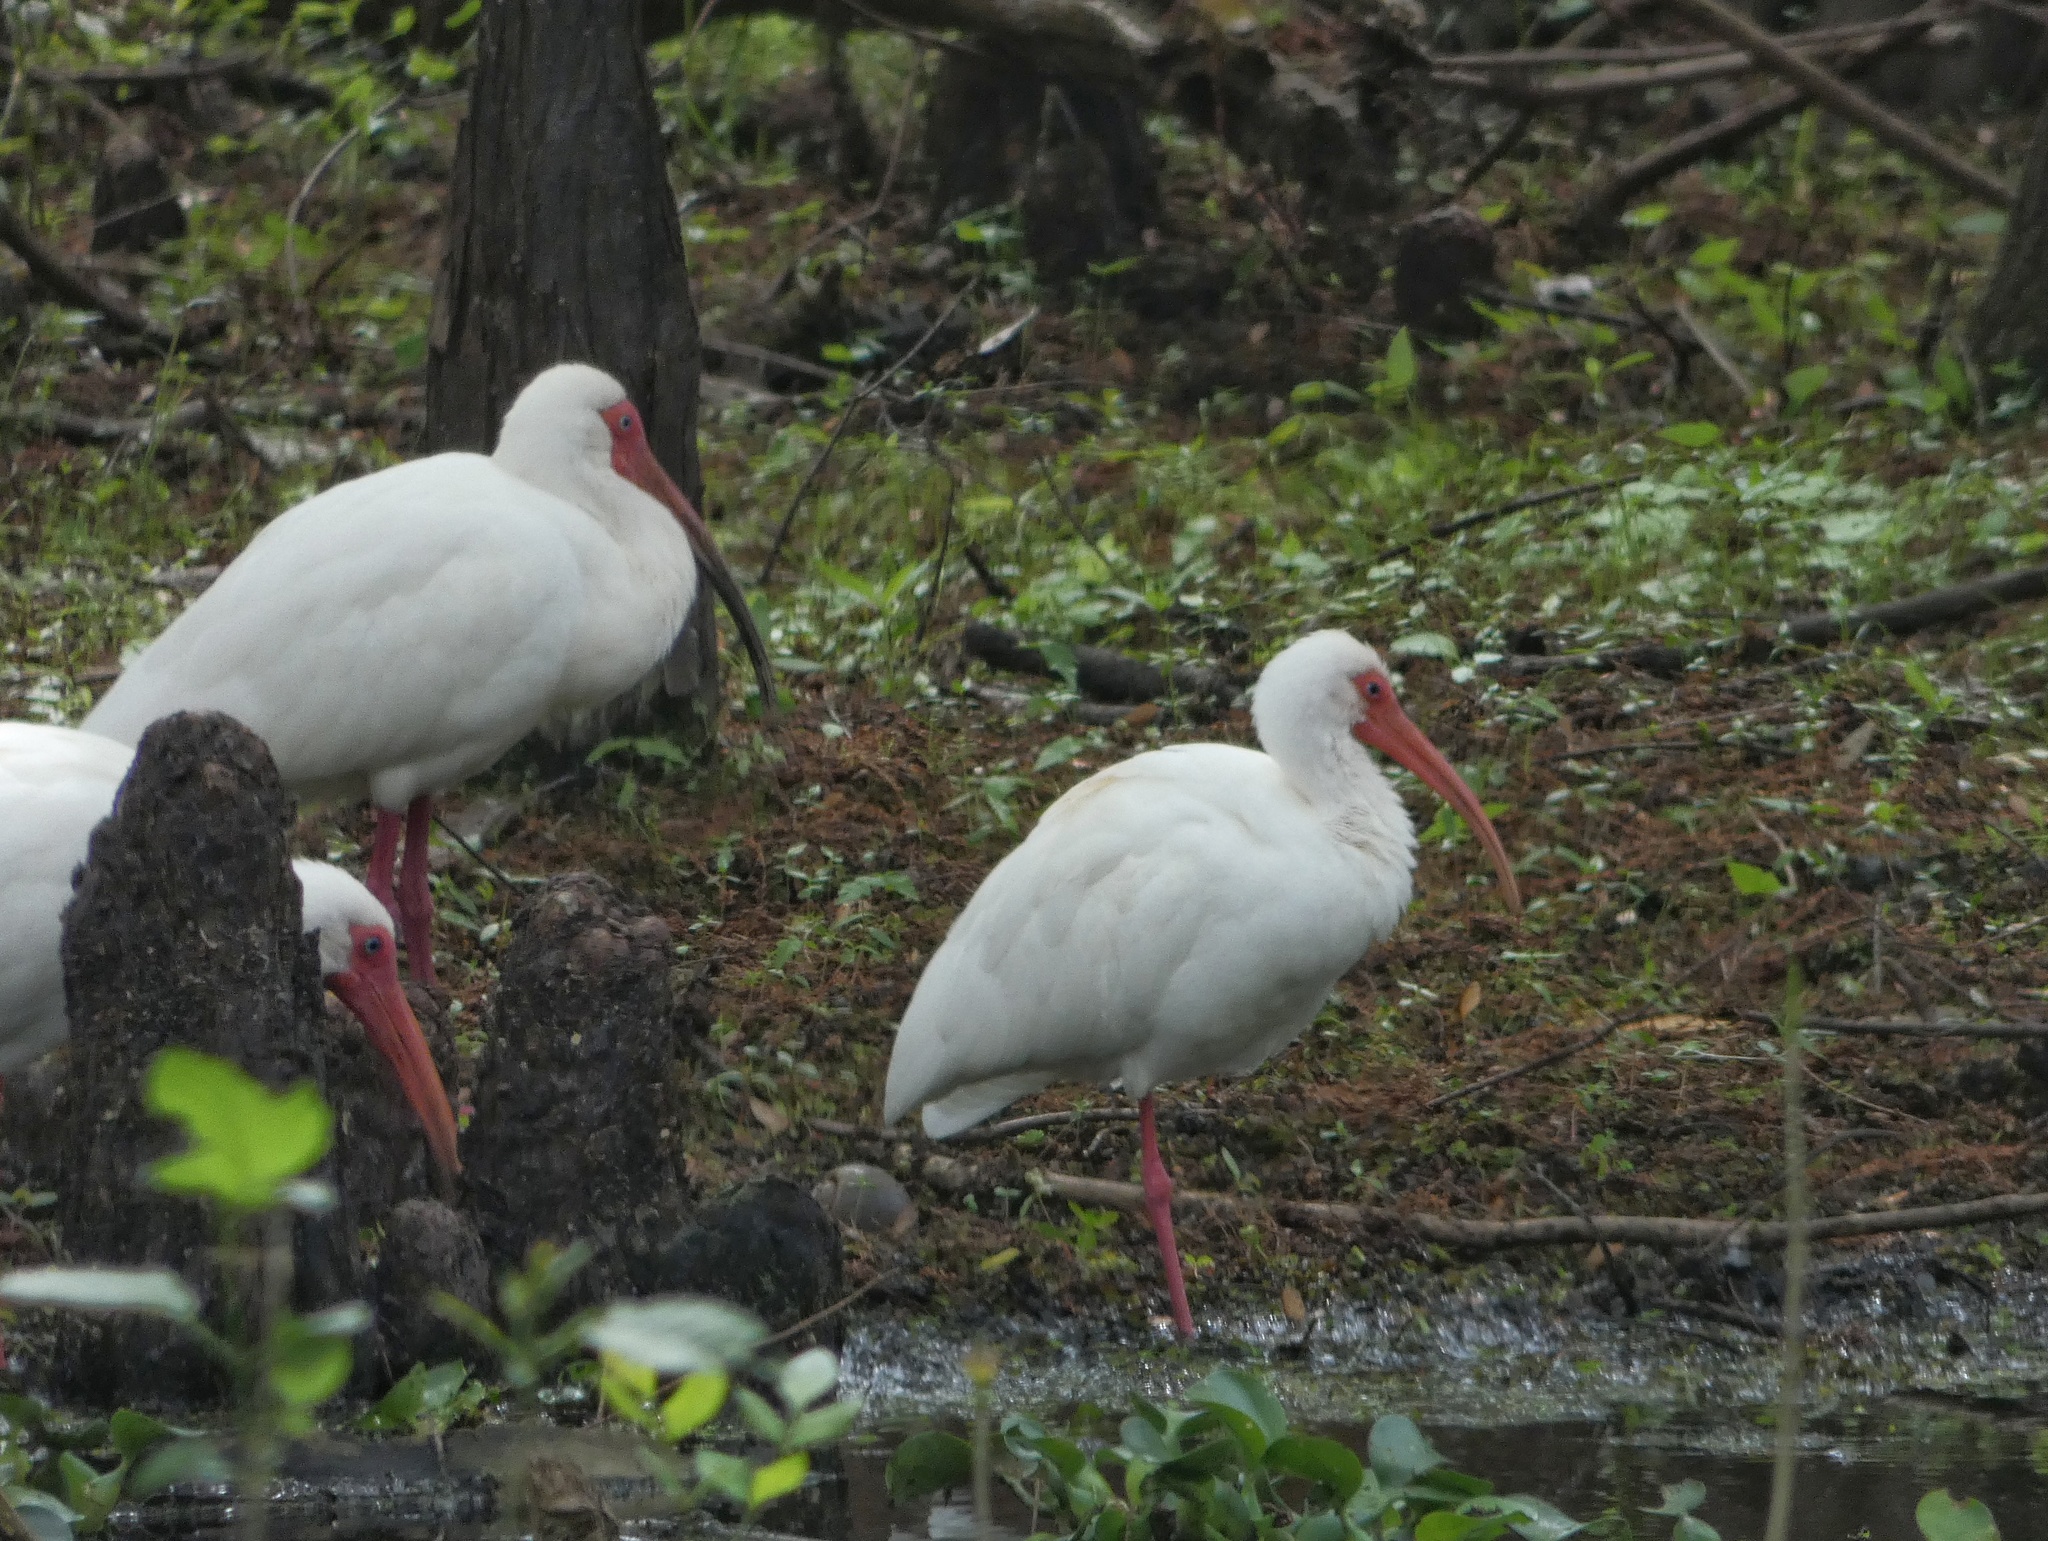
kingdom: Animalia
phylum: Chordata
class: Aves
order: Pelecaniformes
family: Threskiornithidae
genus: Eudocimus
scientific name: Eudocimus albus
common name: White ibis
